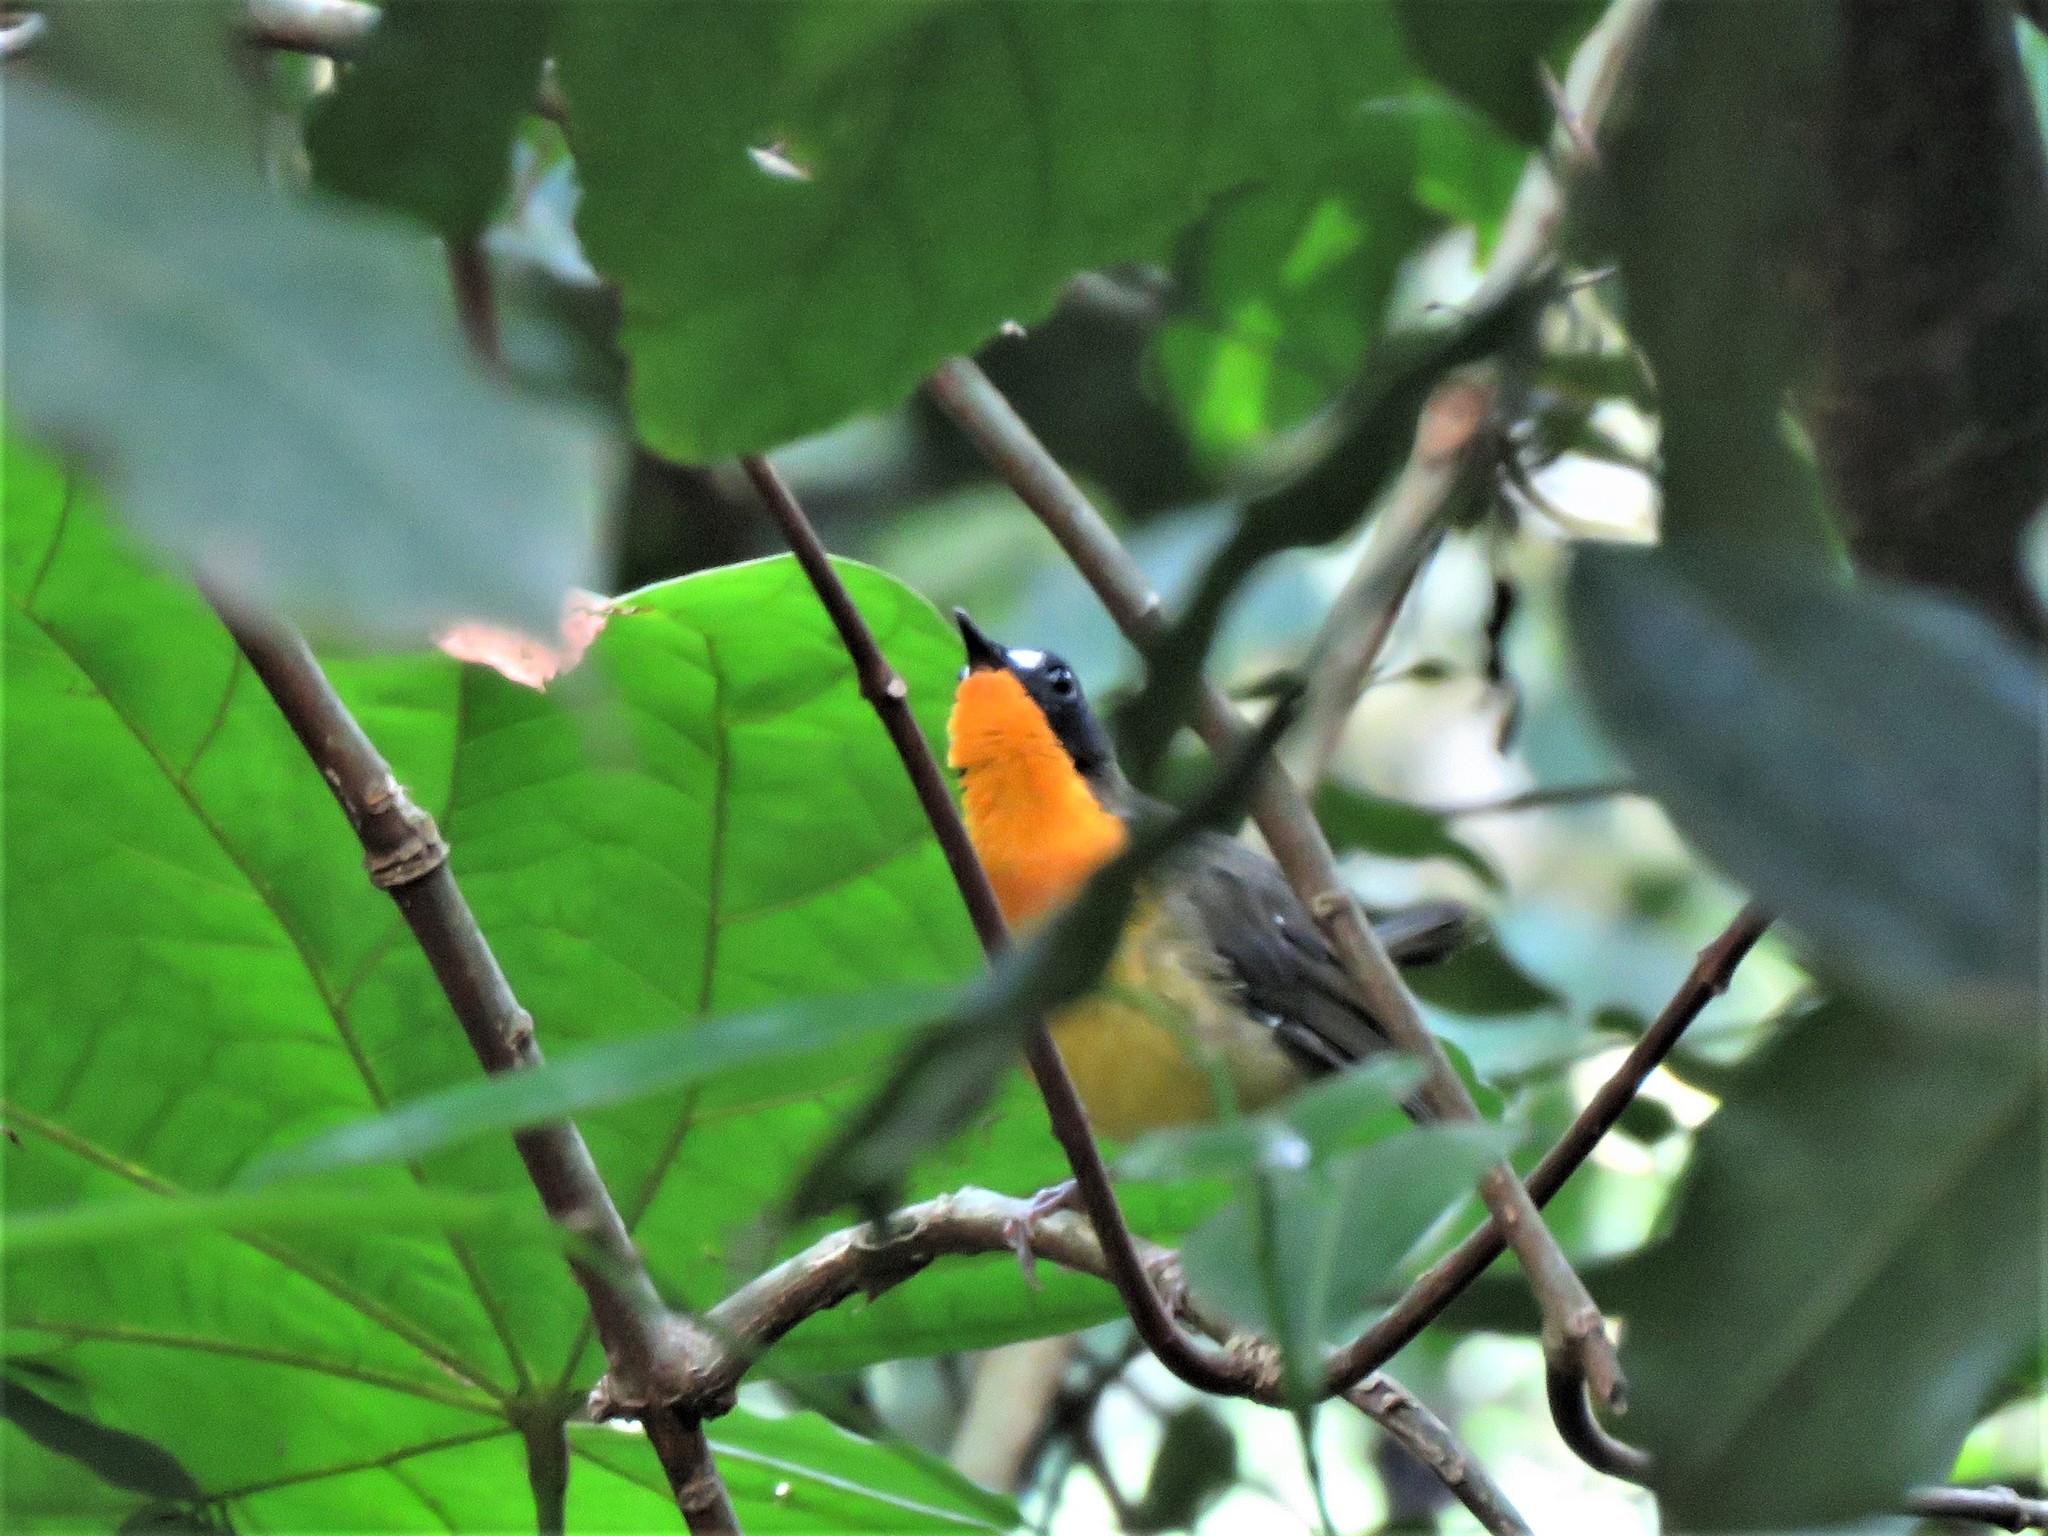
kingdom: Animalia
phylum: Chordata
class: Aves
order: Passeriformes
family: Muscicapidae
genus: Stiphrornis
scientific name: Stiphrornis
